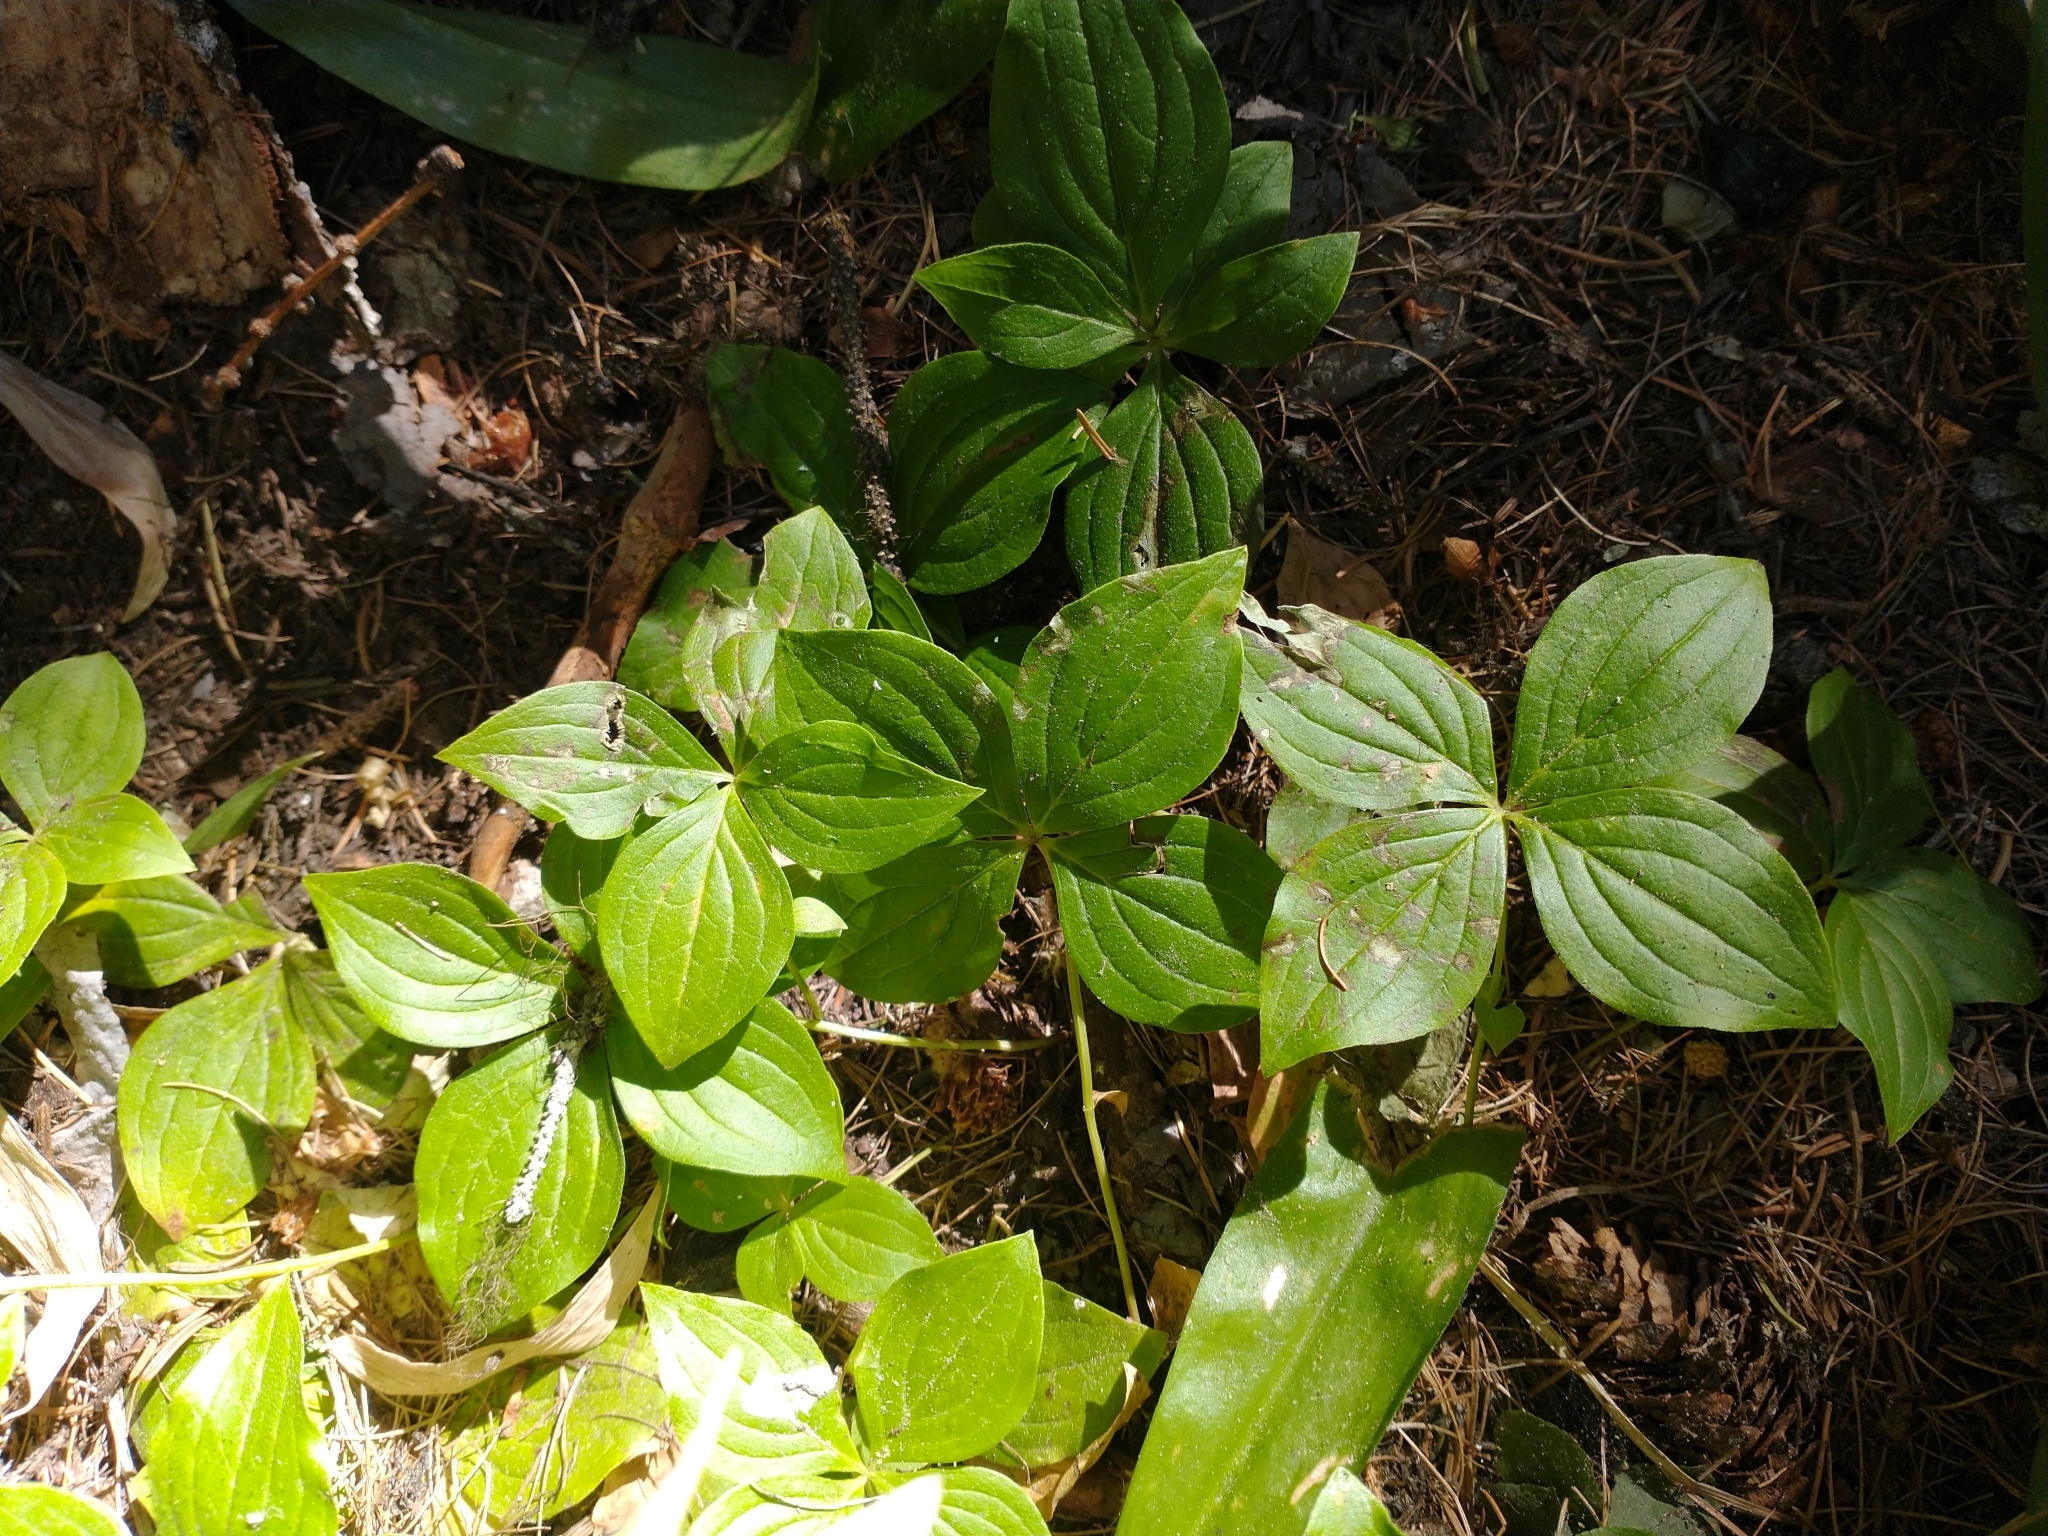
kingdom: Plantae
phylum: Tracheophyta
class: Magnoliopsida
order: Cornales
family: Cornaceae
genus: Cornus
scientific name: Cornus unalaschkensis
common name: Alaska bunchberry
